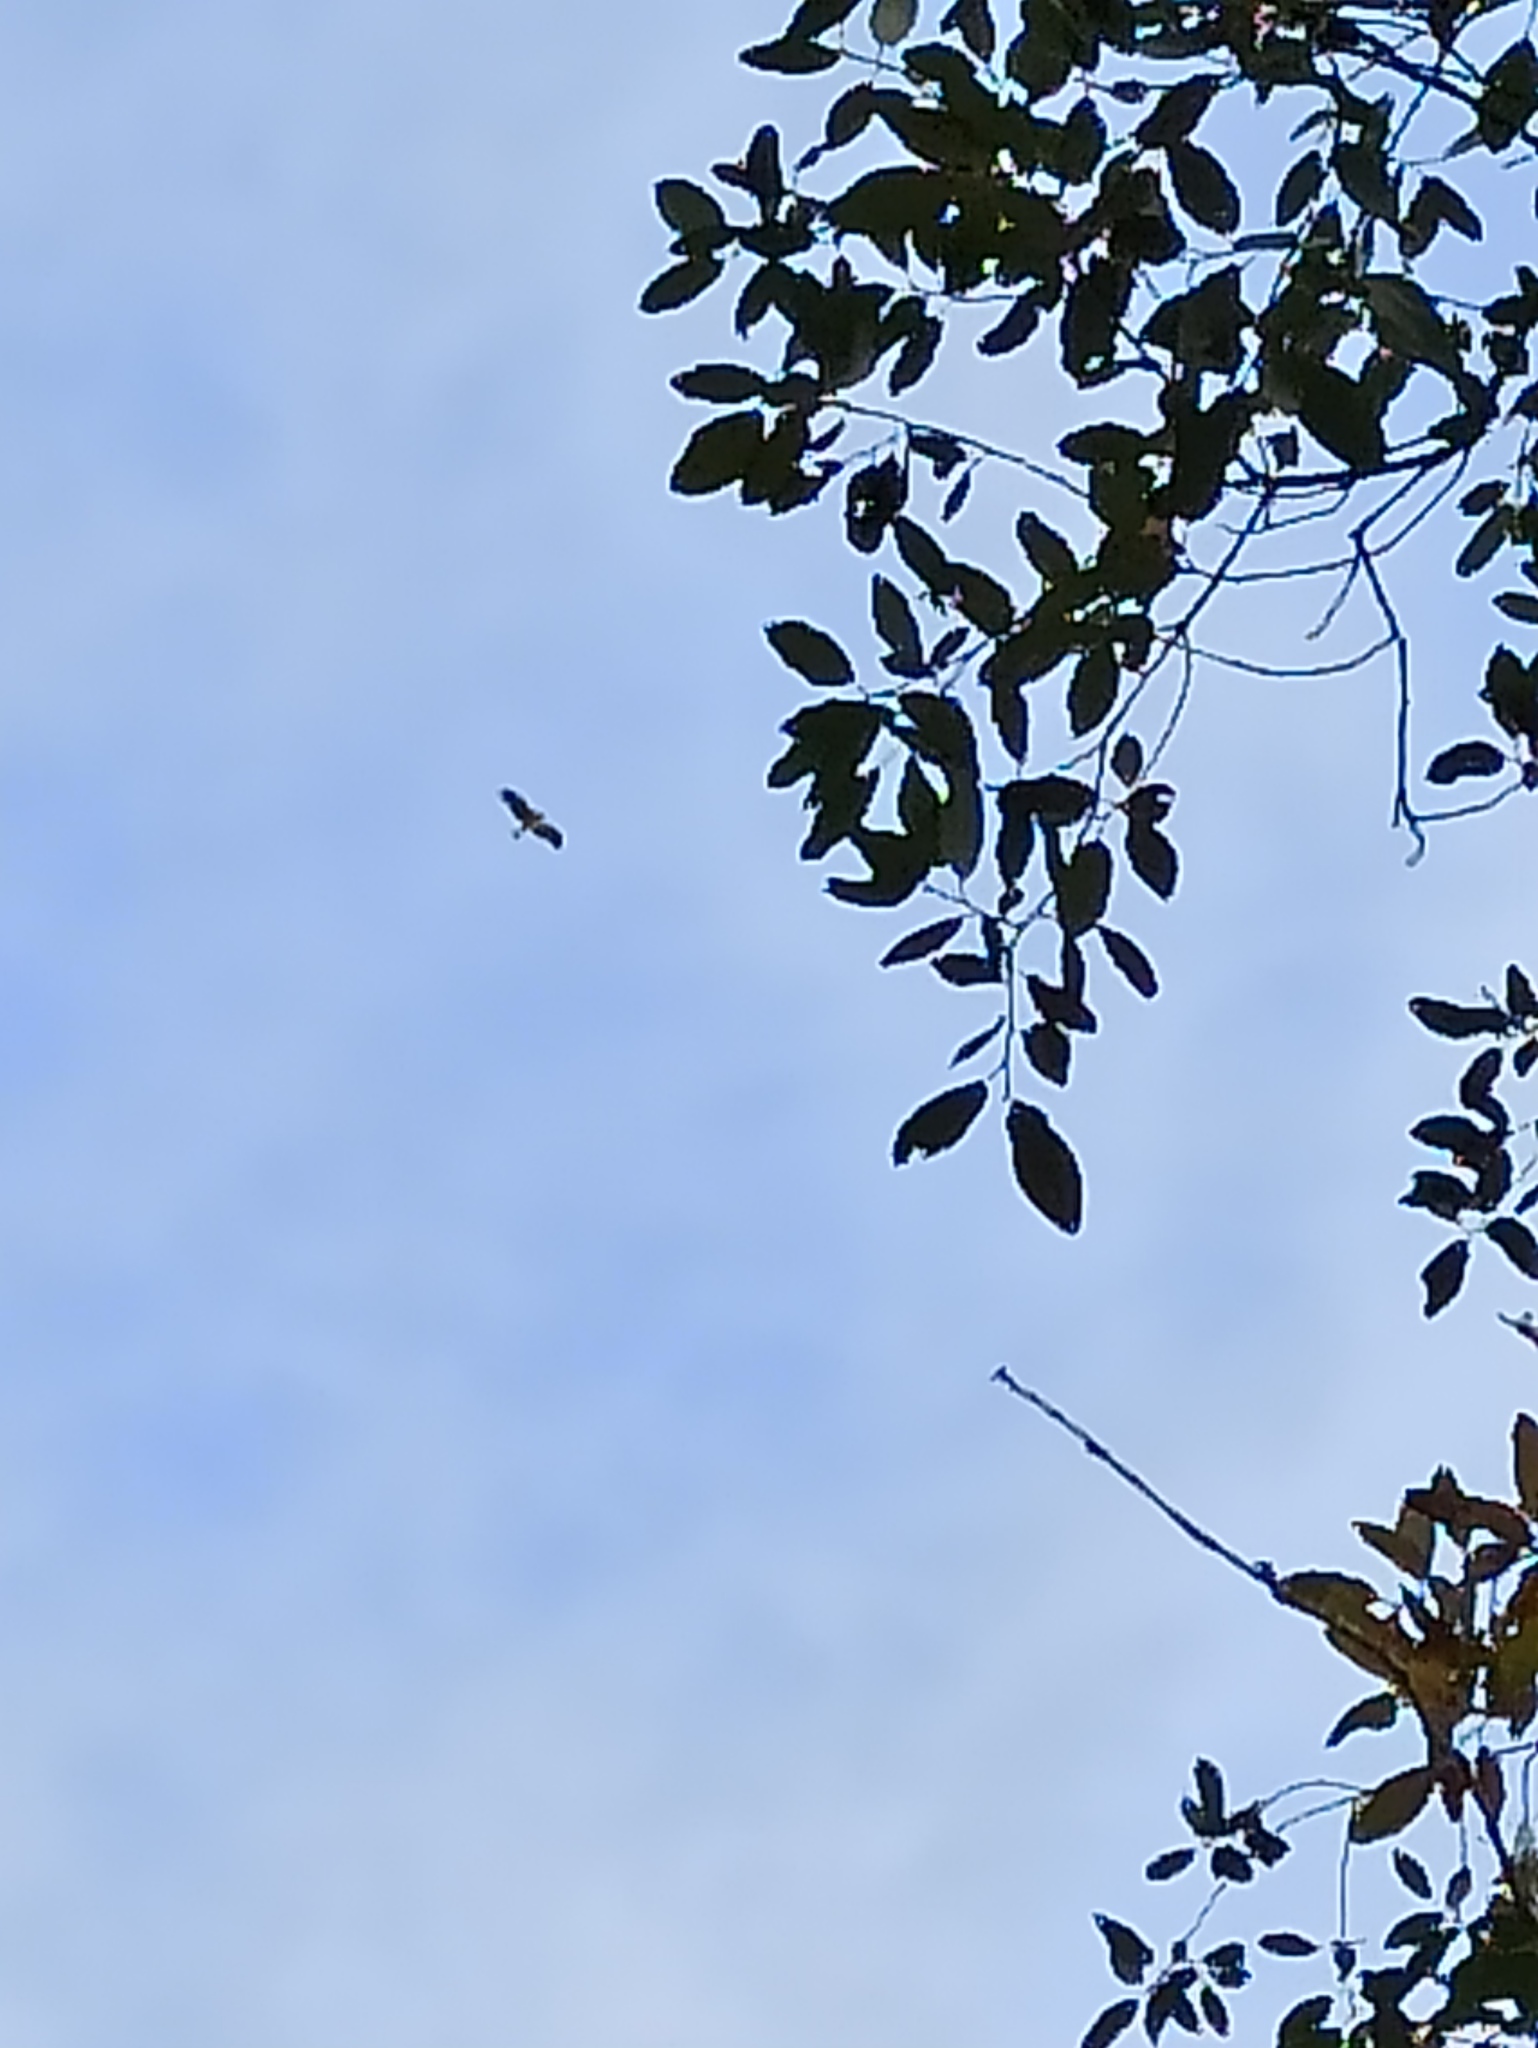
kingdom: Animalia
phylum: Chordata
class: Aves
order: Accipitriformes
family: Accipitridae
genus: Hieraaetus
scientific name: Hieraaetus pennatus
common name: Booted eagle
